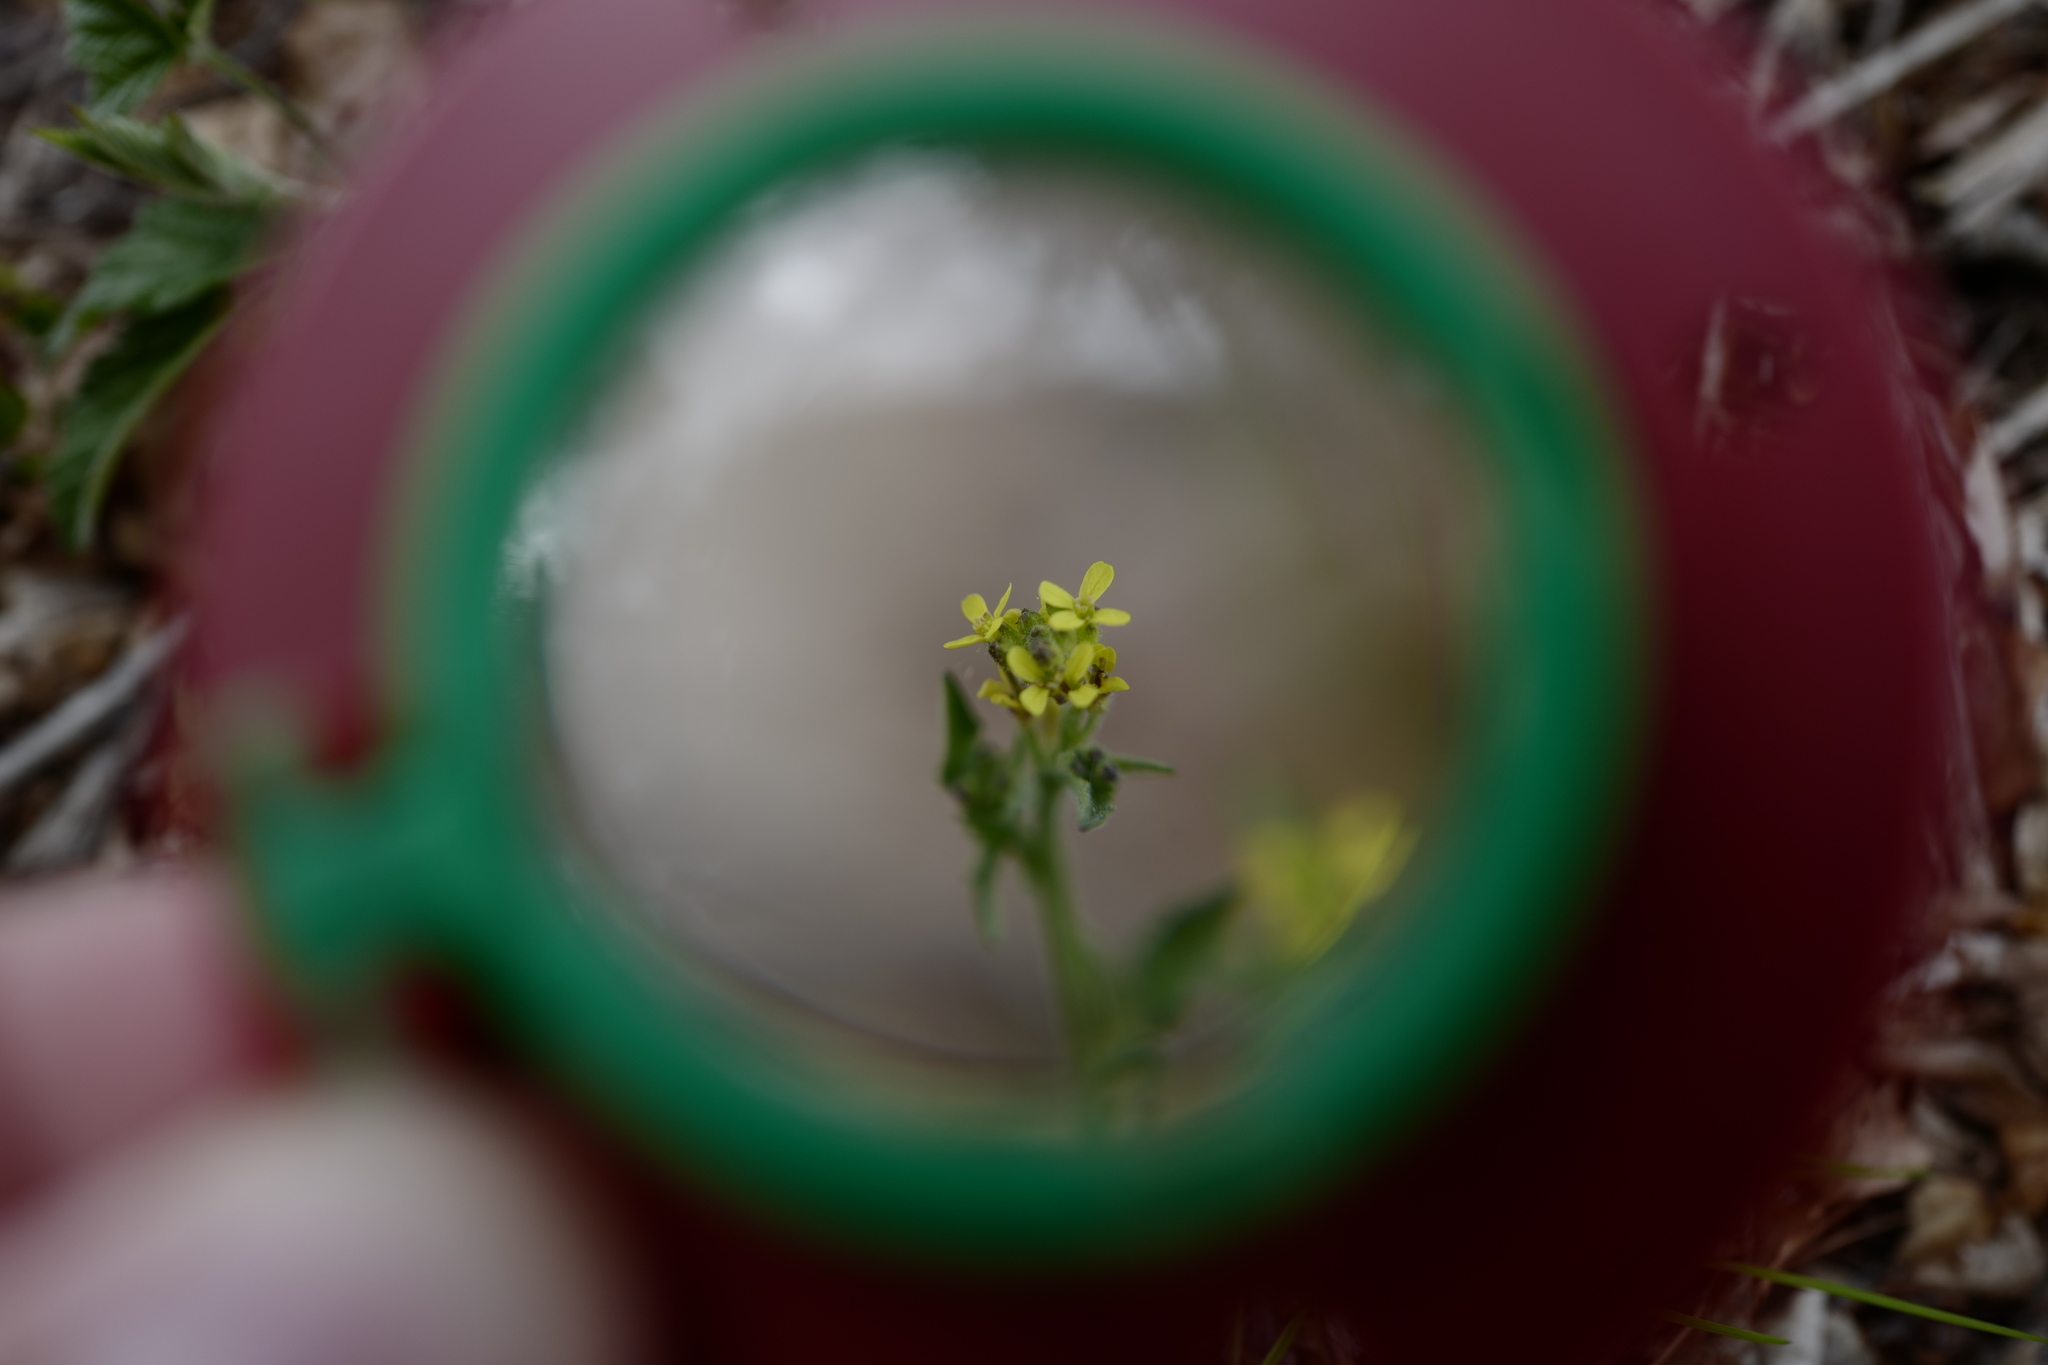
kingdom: Plantae
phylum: Tracheophyta
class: Magnoliopsida
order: Brassicales
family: Brassicaceae
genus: Sisymbrium
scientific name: Sisymbrium officinale
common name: Hedge mustard
